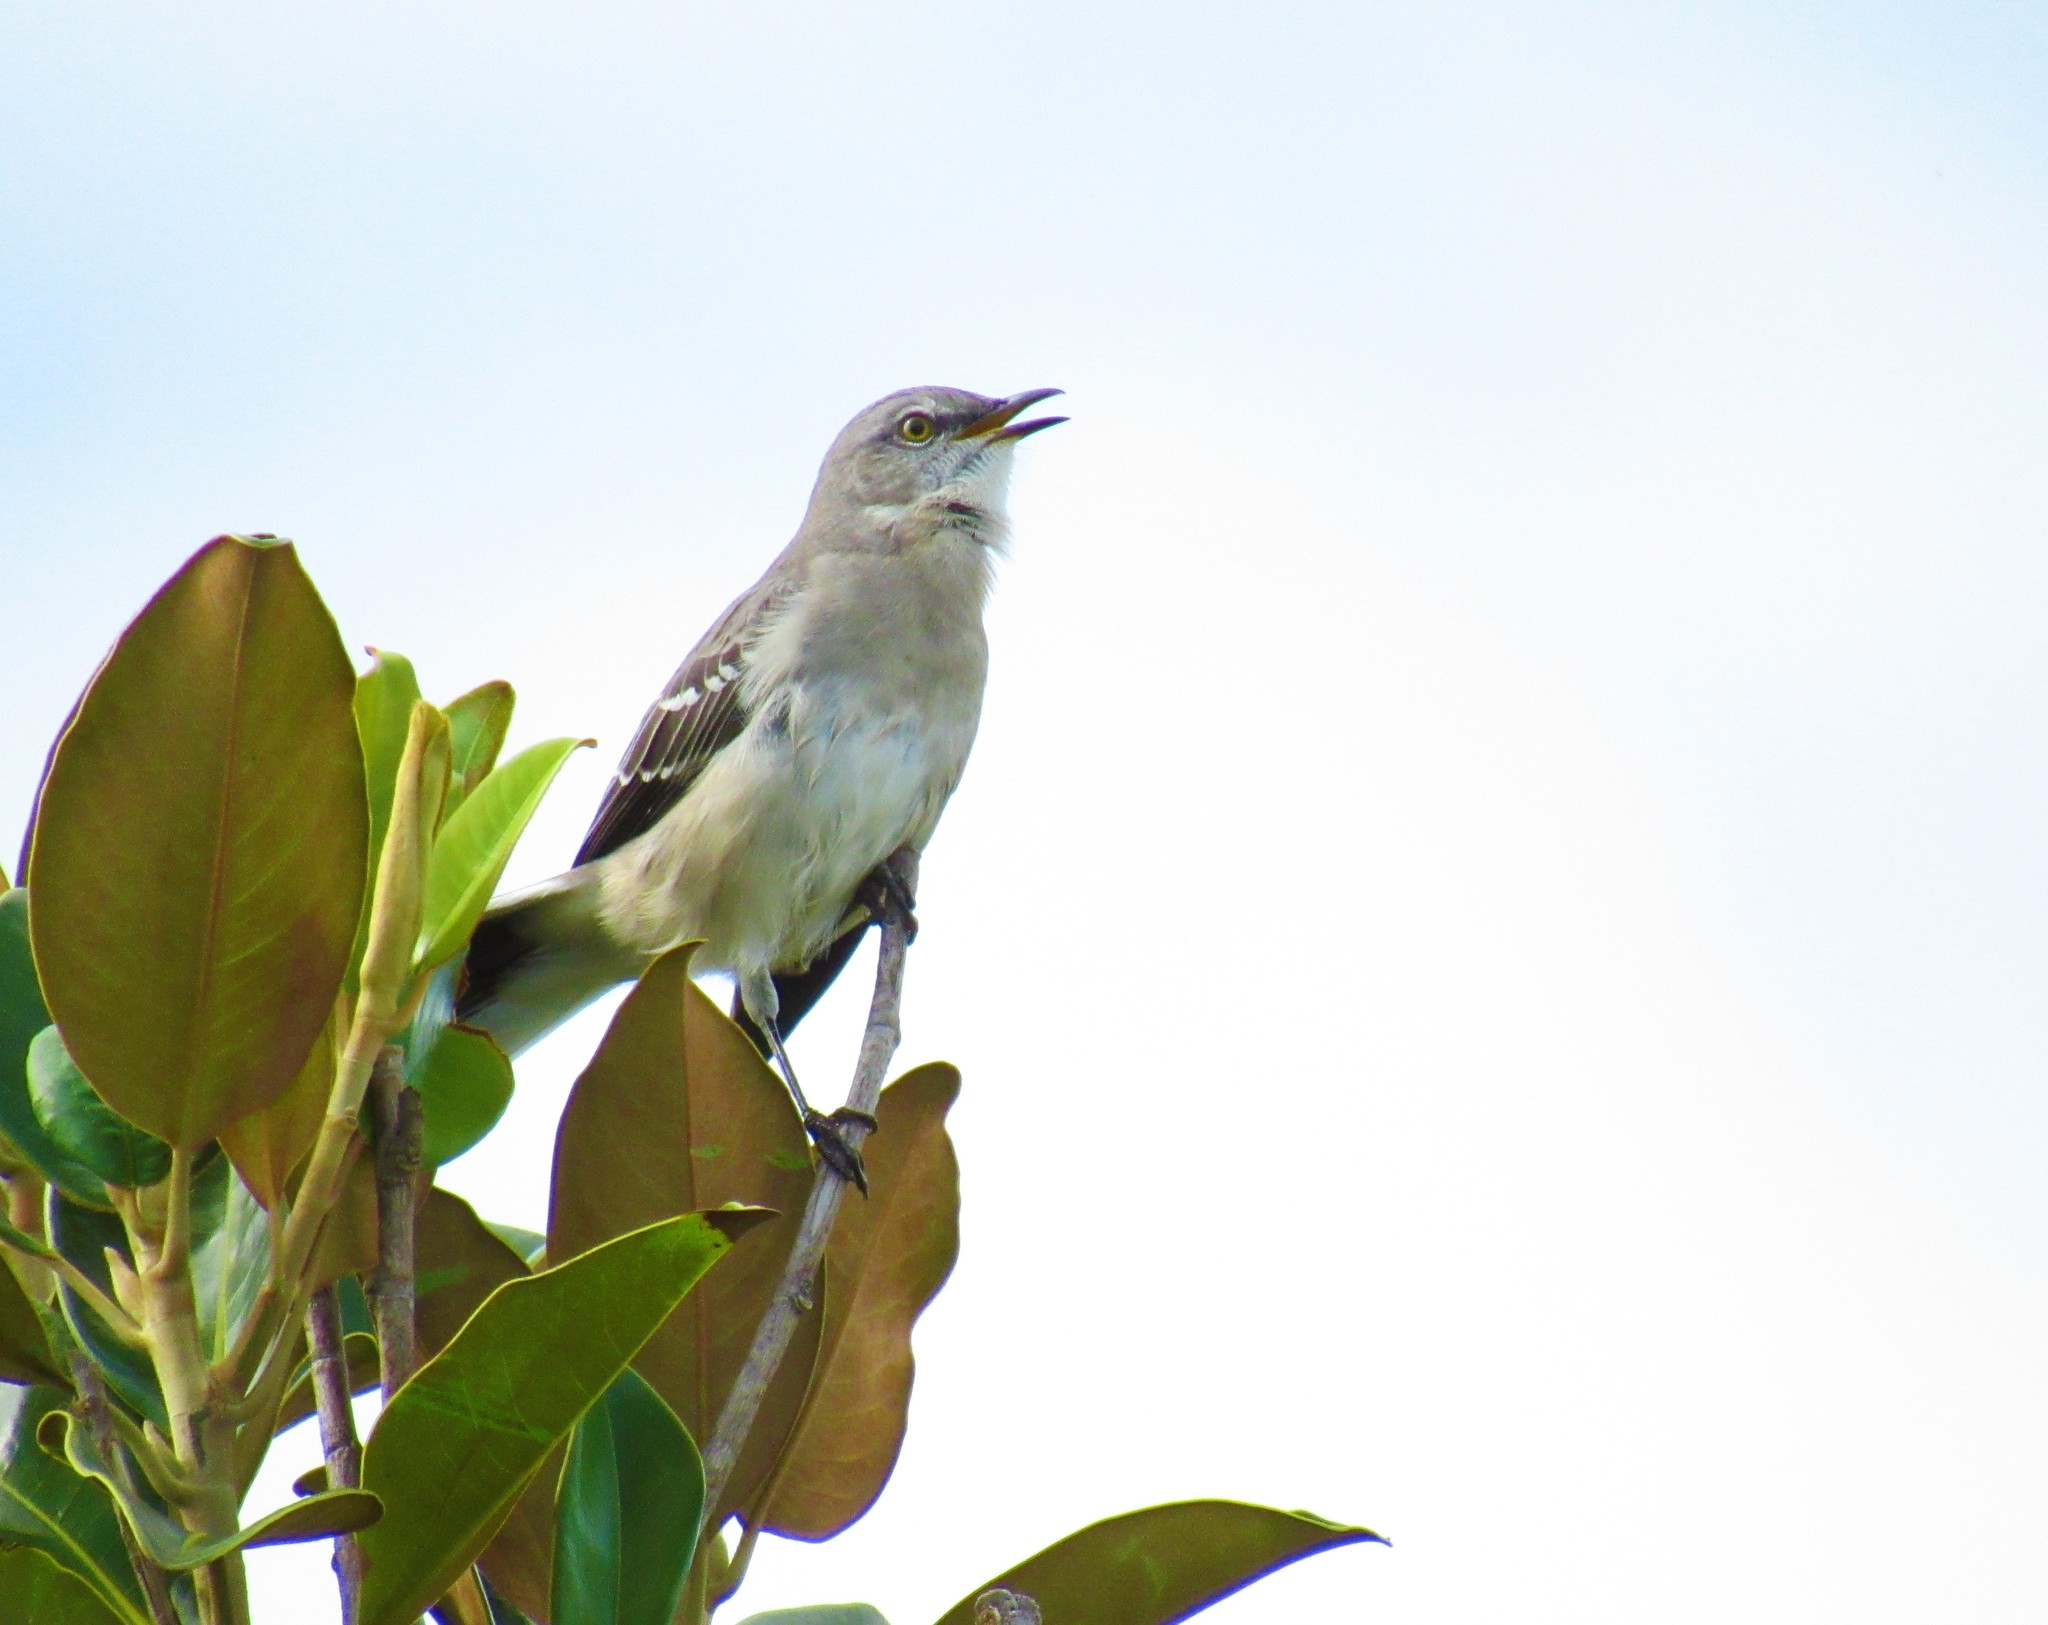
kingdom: Animalia
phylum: Chordata
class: Aves
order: Passeriformes
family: Mimidae
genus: Mimus
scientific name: Mimus polyglottos
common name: Northern mockingbird
